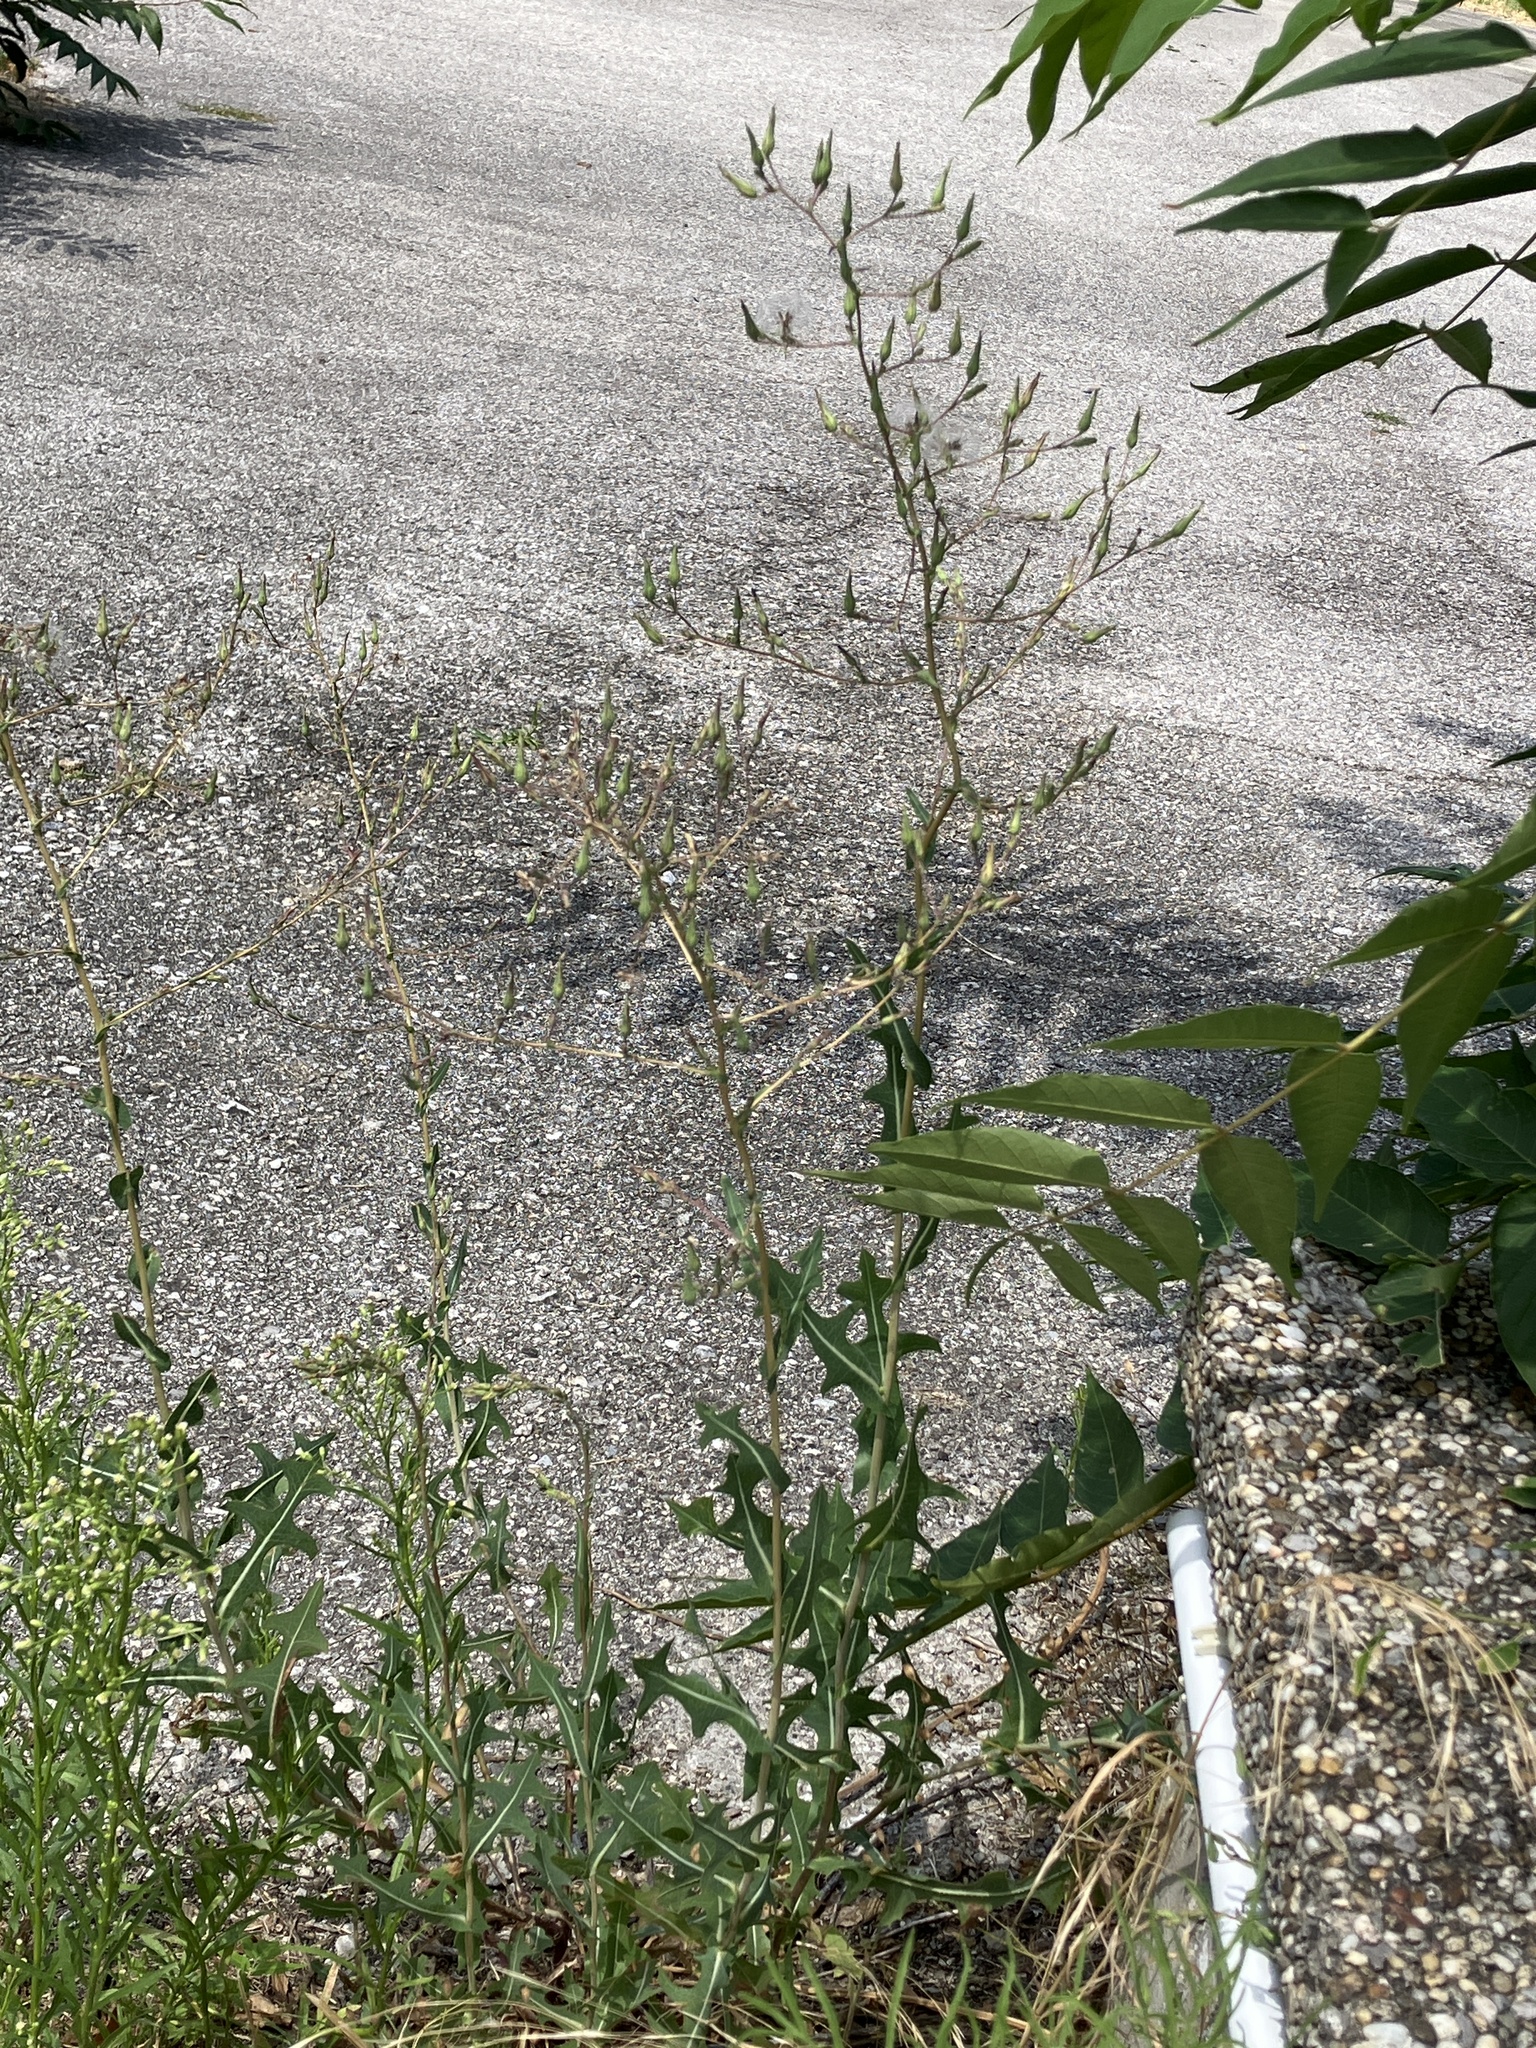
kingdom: Plantae
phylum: Tracheophyta
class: Magnoliopsida
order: Asterales
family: Asteraceae
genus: Lactuca
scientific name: Lactuca serriola
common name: Prickly lettuce
